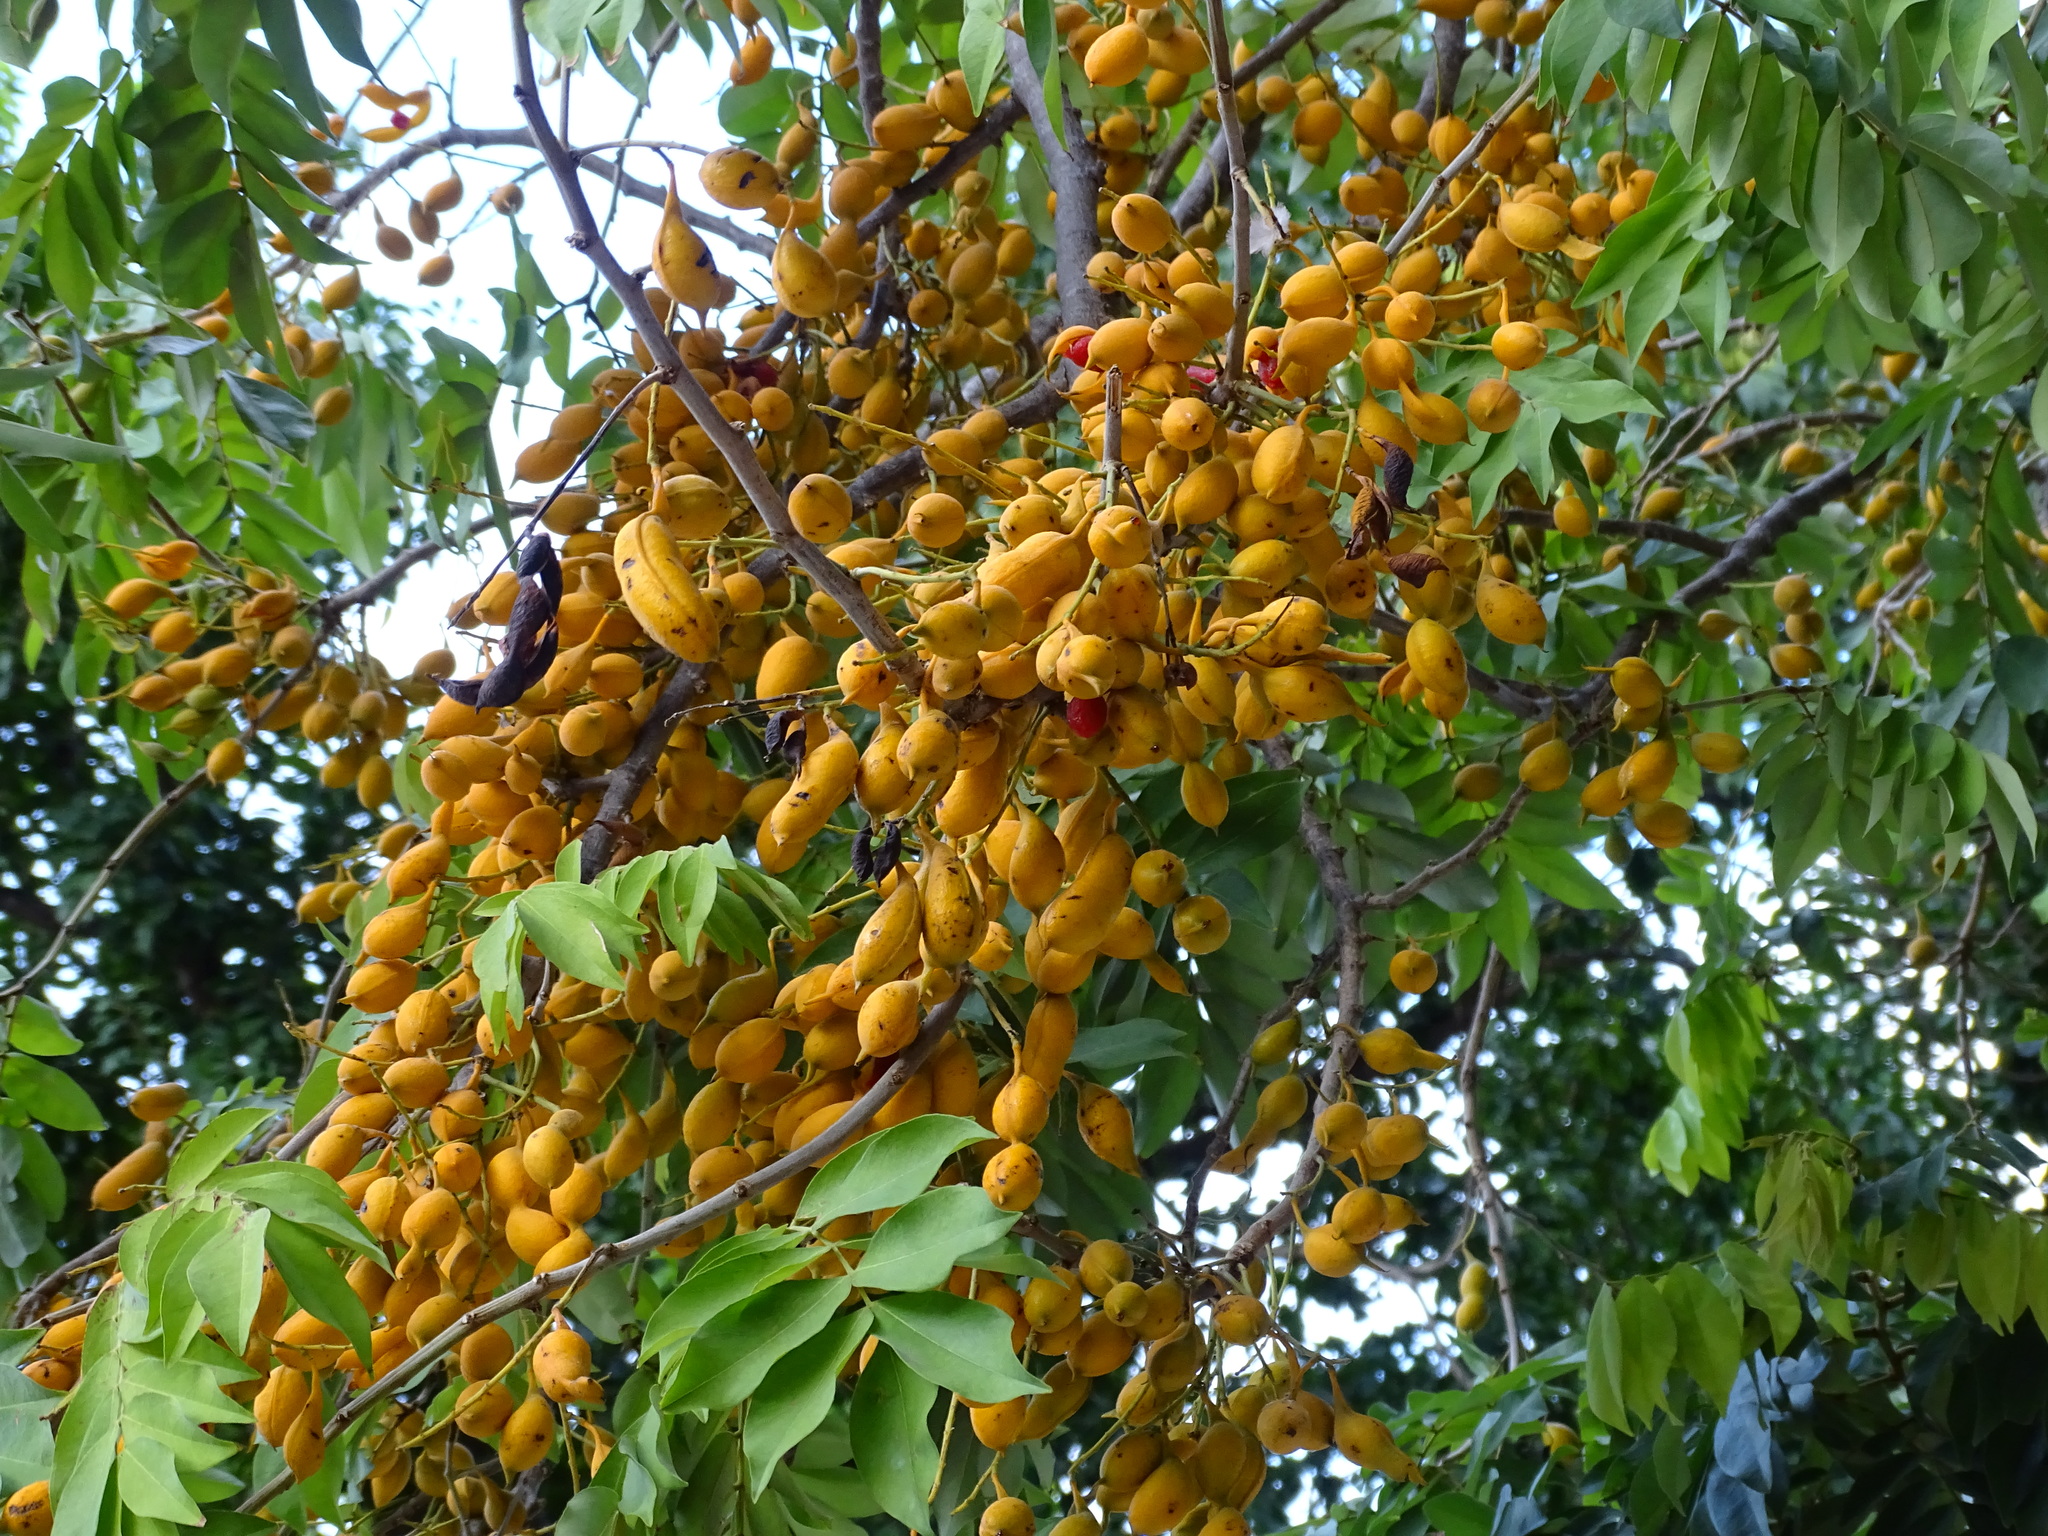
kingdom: Plantae
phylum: Tracheophyta
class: Magnoliopsida
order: Fabales
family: Fabaceae
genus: Swartzia
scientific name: Swartzia cubensis
